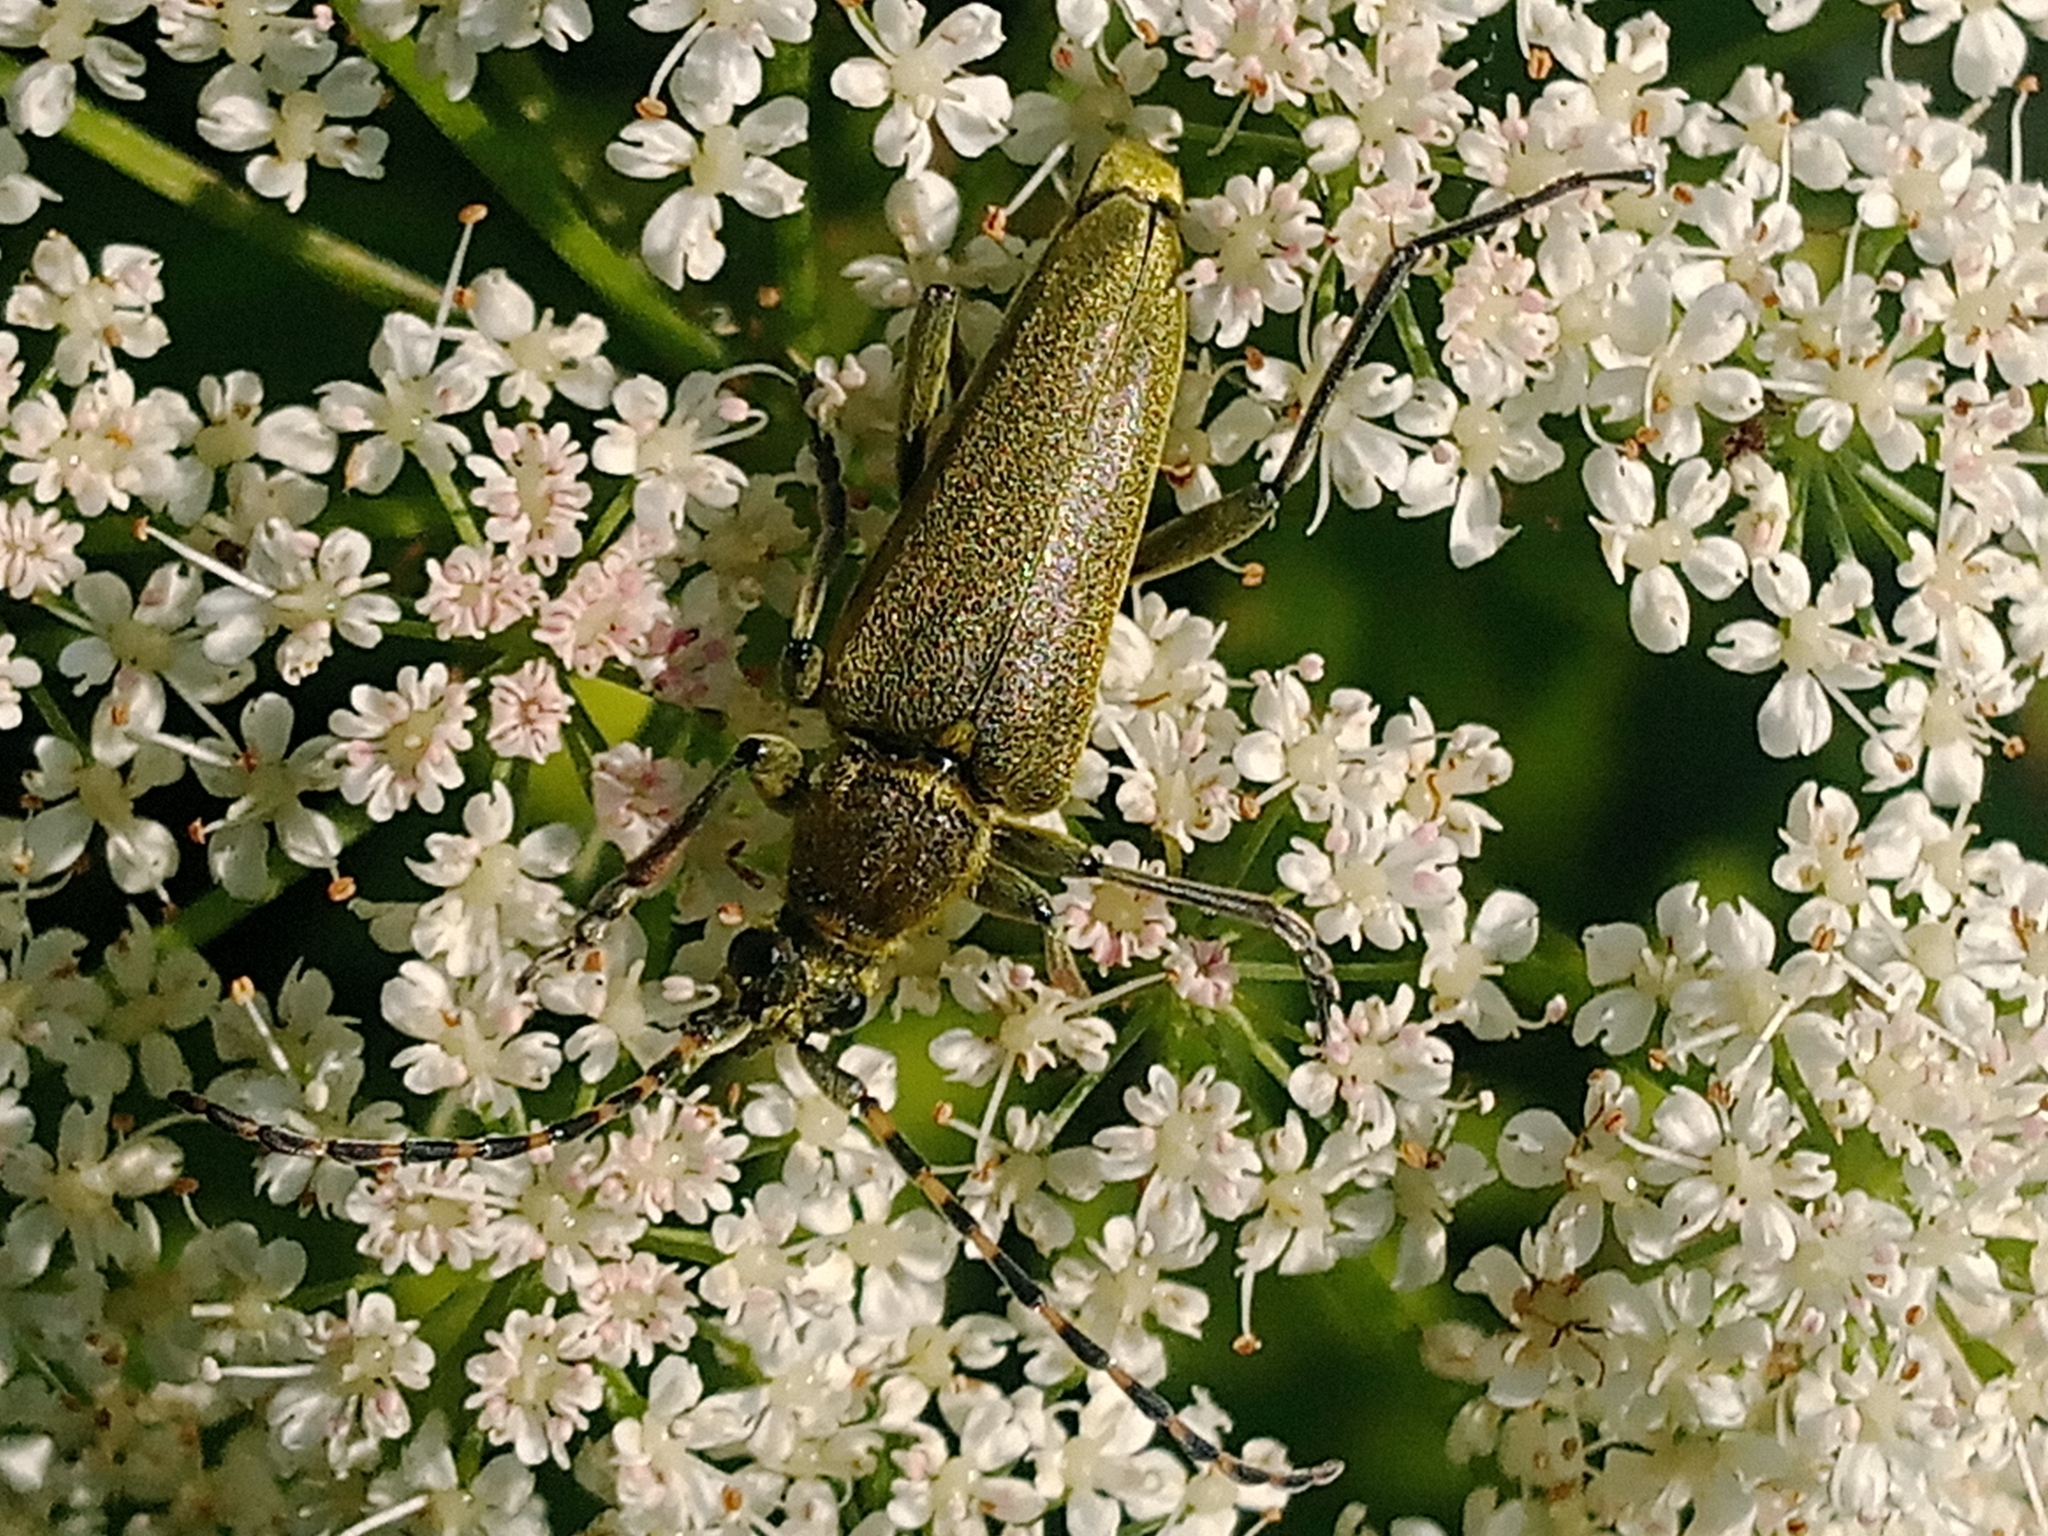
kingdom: Animalia
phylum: Arthropoda
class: Insecta
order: Coleoptera
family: Cerambycidae
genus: Lepturobosca
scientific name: Lepturobosca virens
